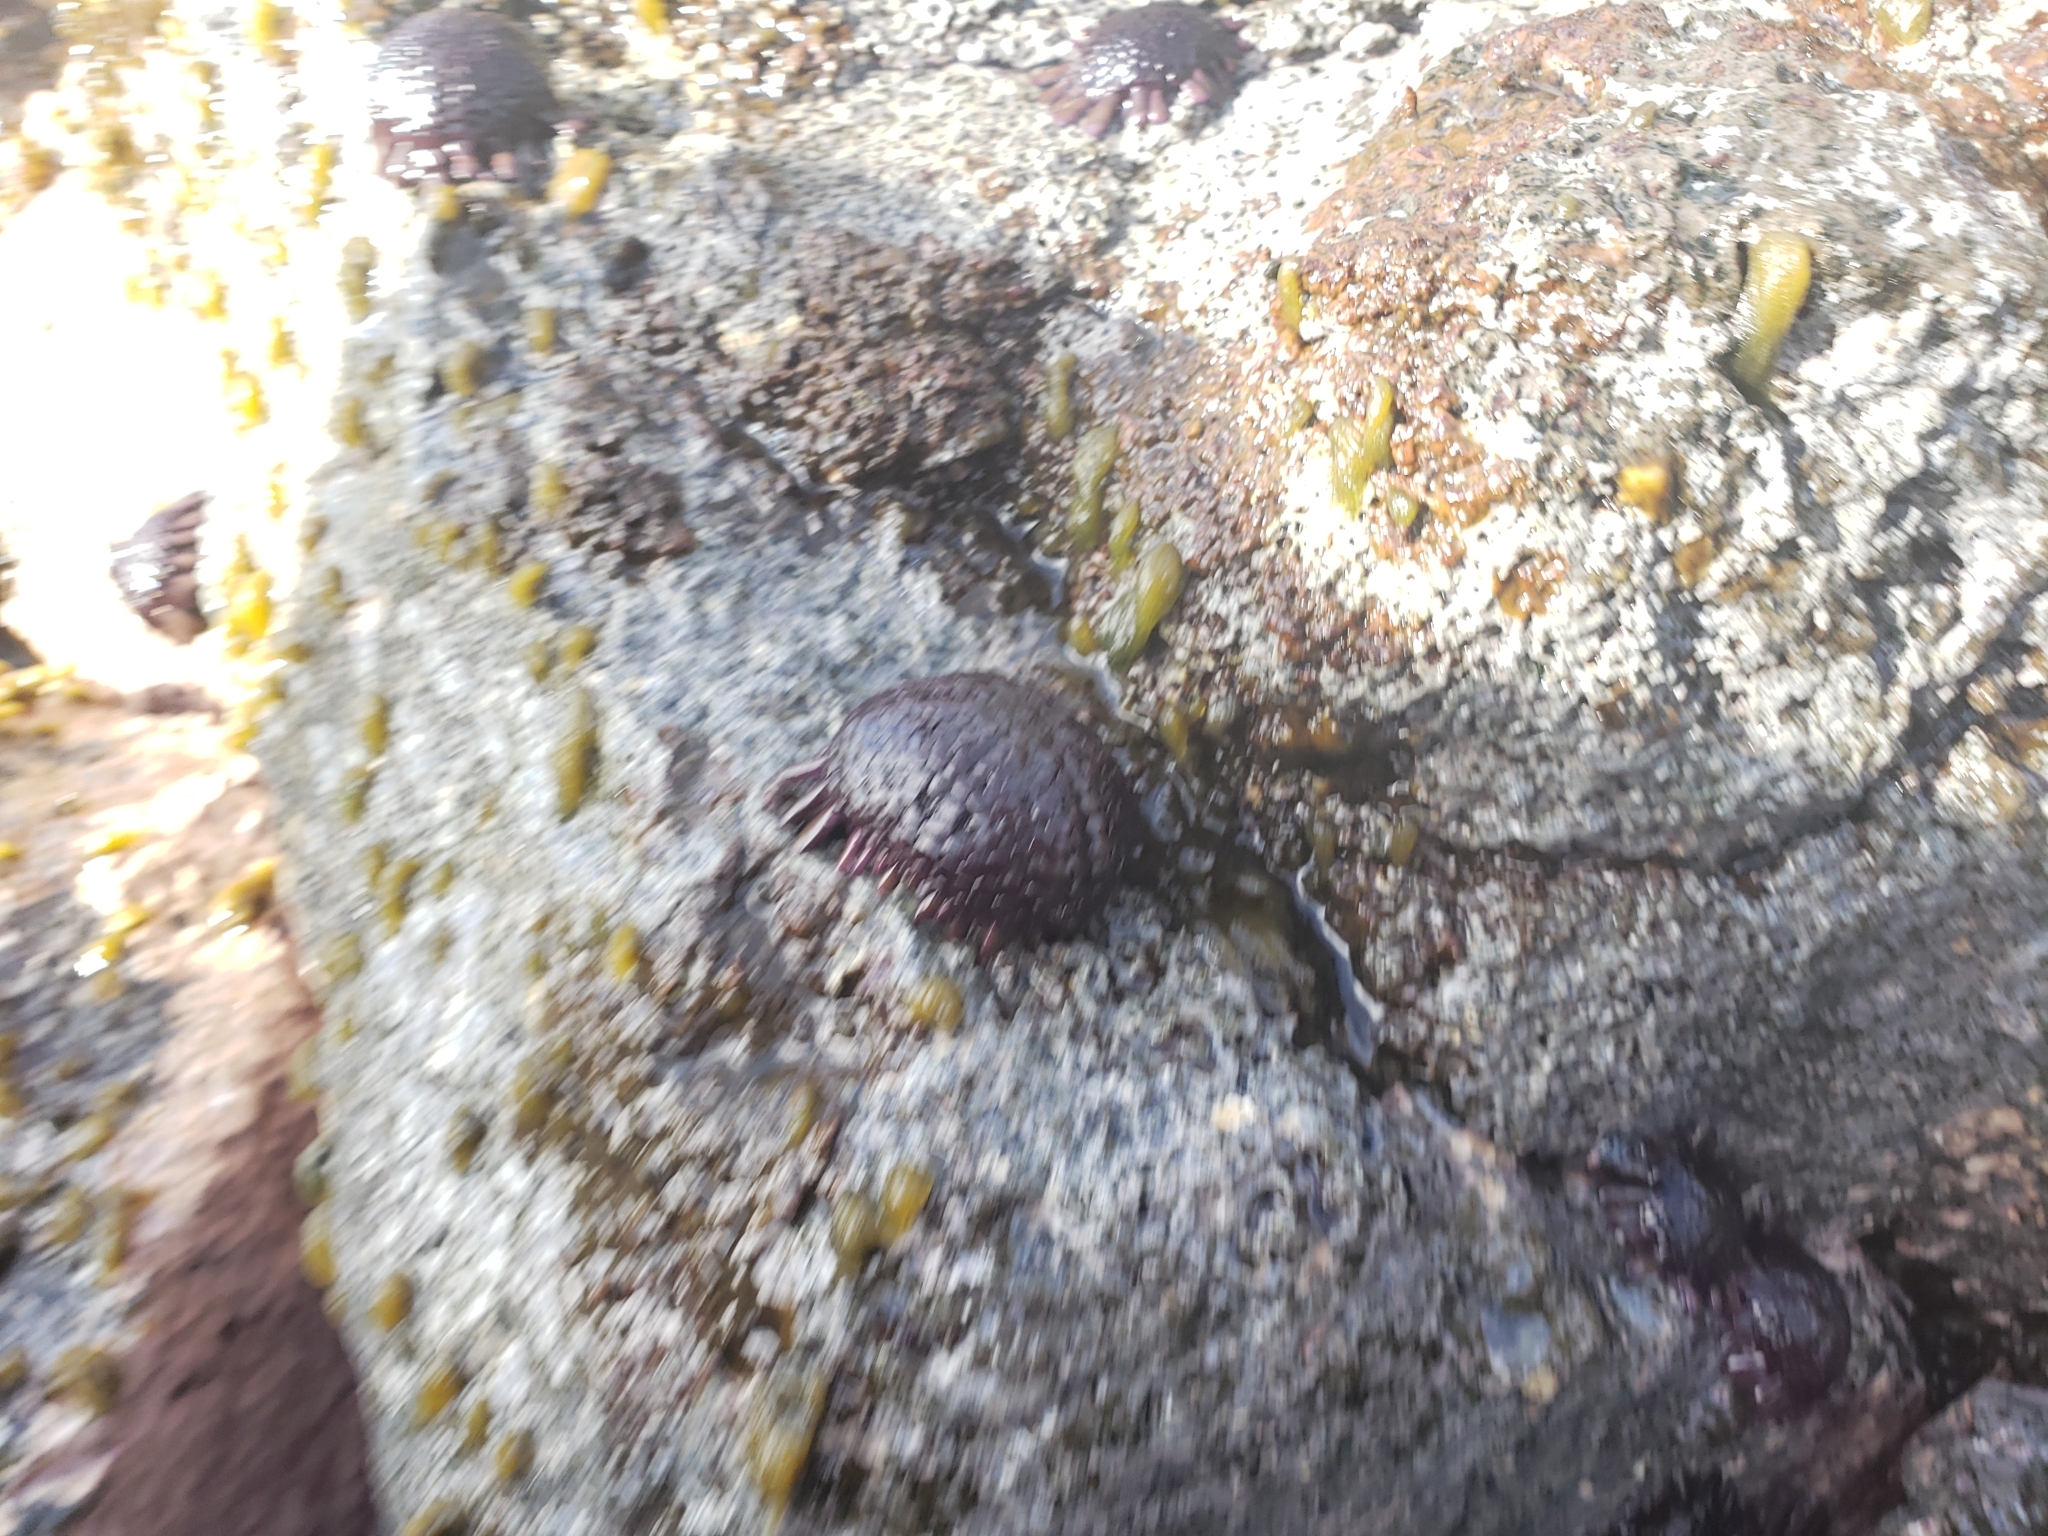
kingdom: Animalia
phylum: Echinodermata
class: Echinoidea
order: Camarodonta
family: Echinometridae
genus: Colobocentrotus
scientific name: Colobocentrotus atratus
